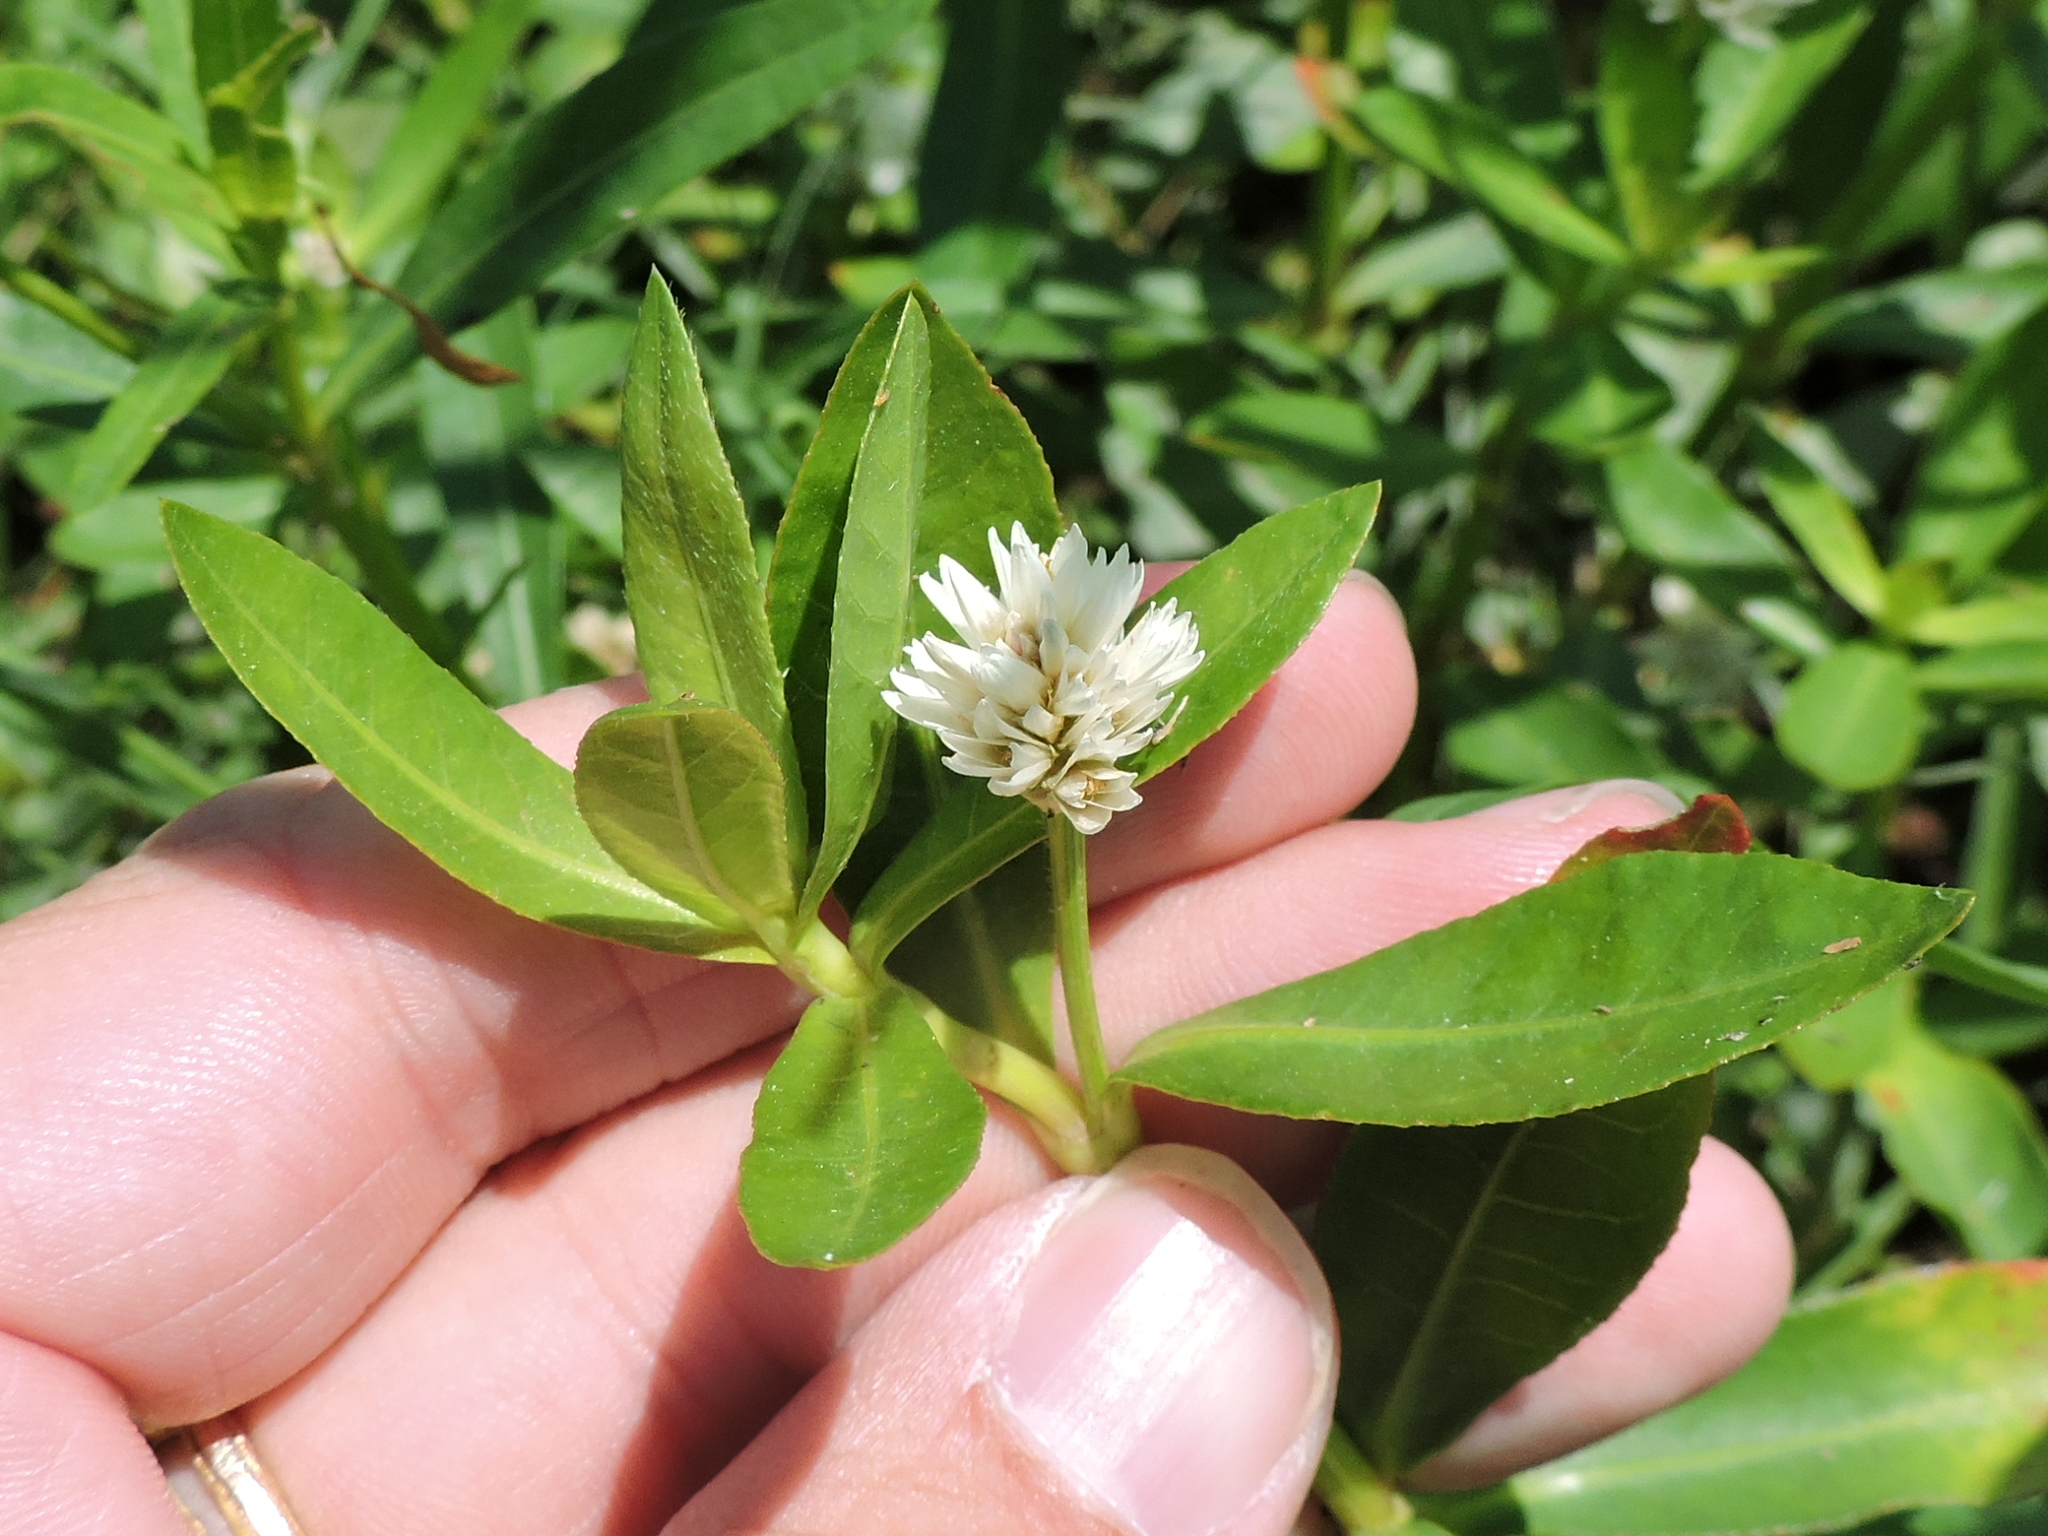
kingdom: Plantae
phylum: Tracheophyta
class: Magnoliopsida
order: Caryophyllales
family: Amaranthaceae
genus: Alternanthera
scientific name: Alternanthera philoxeroides
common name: Alligatorweed
